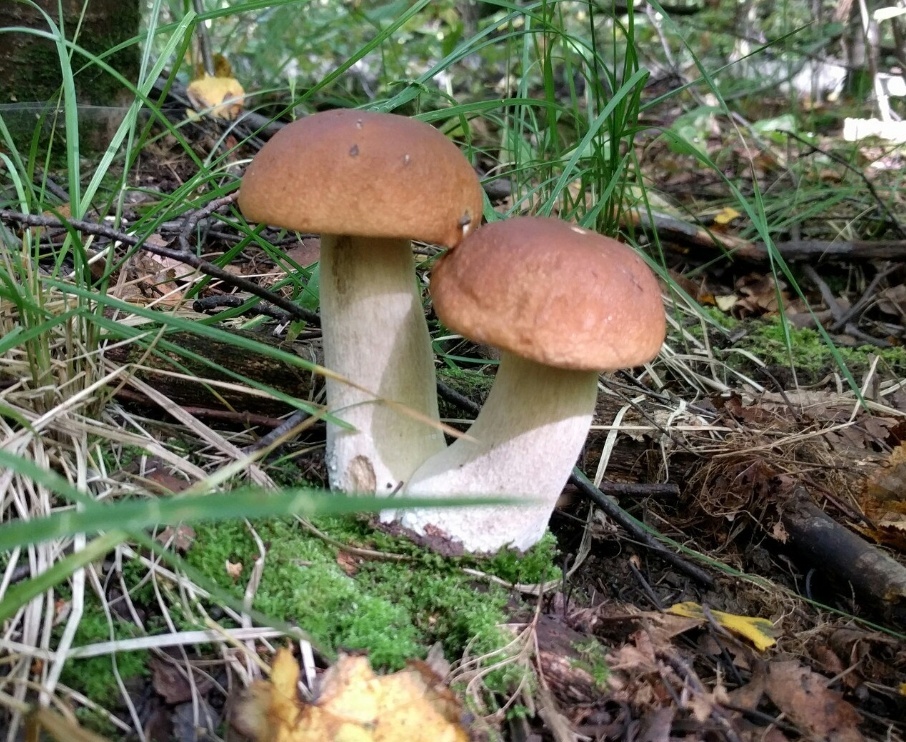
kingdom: Fungi
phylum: Basidiomycota
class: Agaricomycetes
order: Boletales
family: Boletaceae
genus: Boletus
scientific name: Boletus edulis
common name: Cep
